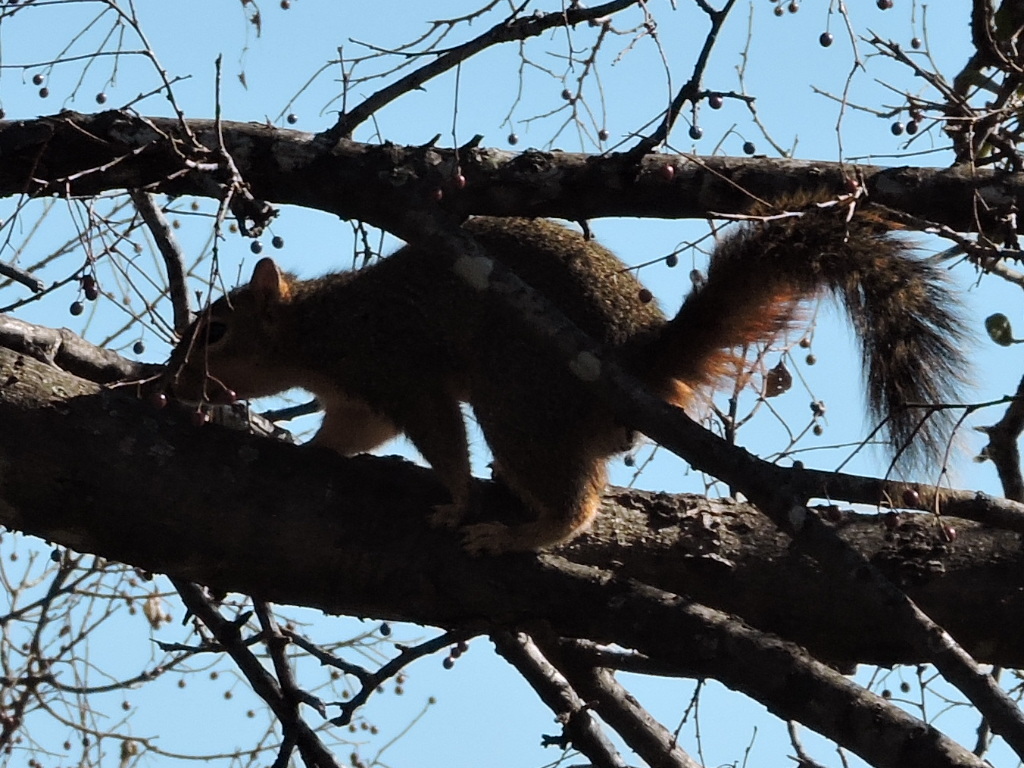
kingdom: Animalia
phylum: Chordata
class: Mammalia
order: Rodentia
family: Sciuridae
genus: Sciurus
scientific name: Sciurus niger
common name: Fox squirrel
